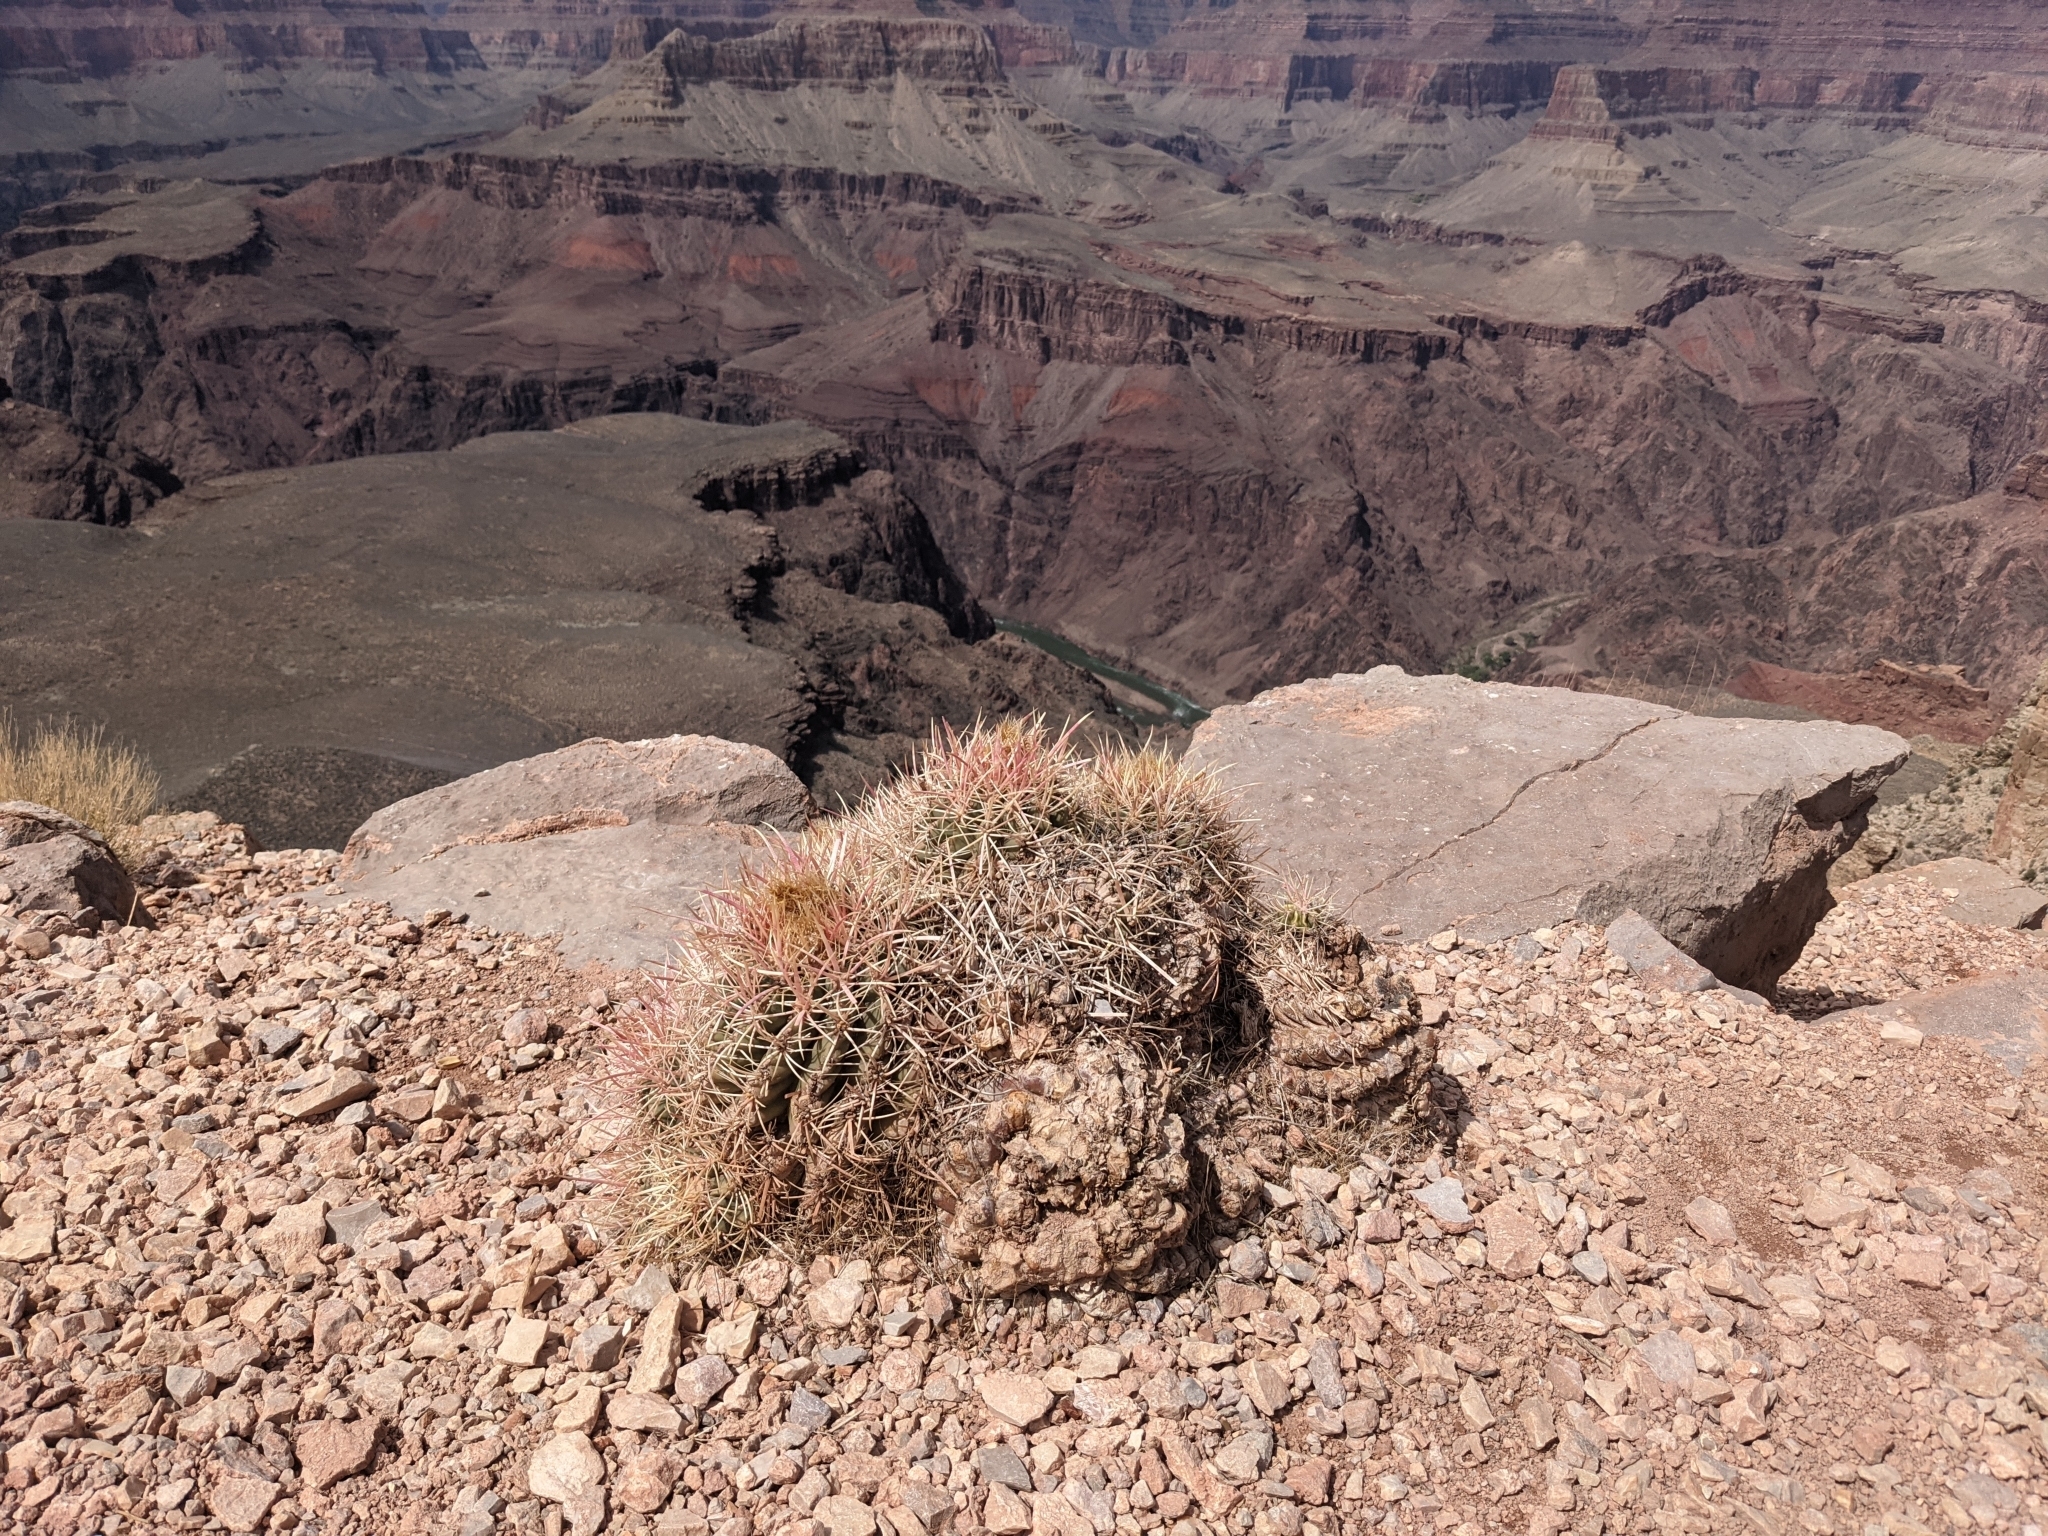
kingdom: Plantae
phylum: Tracheophyta
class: Magnoliopsida
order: Caryophyllales
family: Cactaceae
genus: Echinocactus
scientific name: Echinocactus polycephalus
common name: Cottontop cactus
